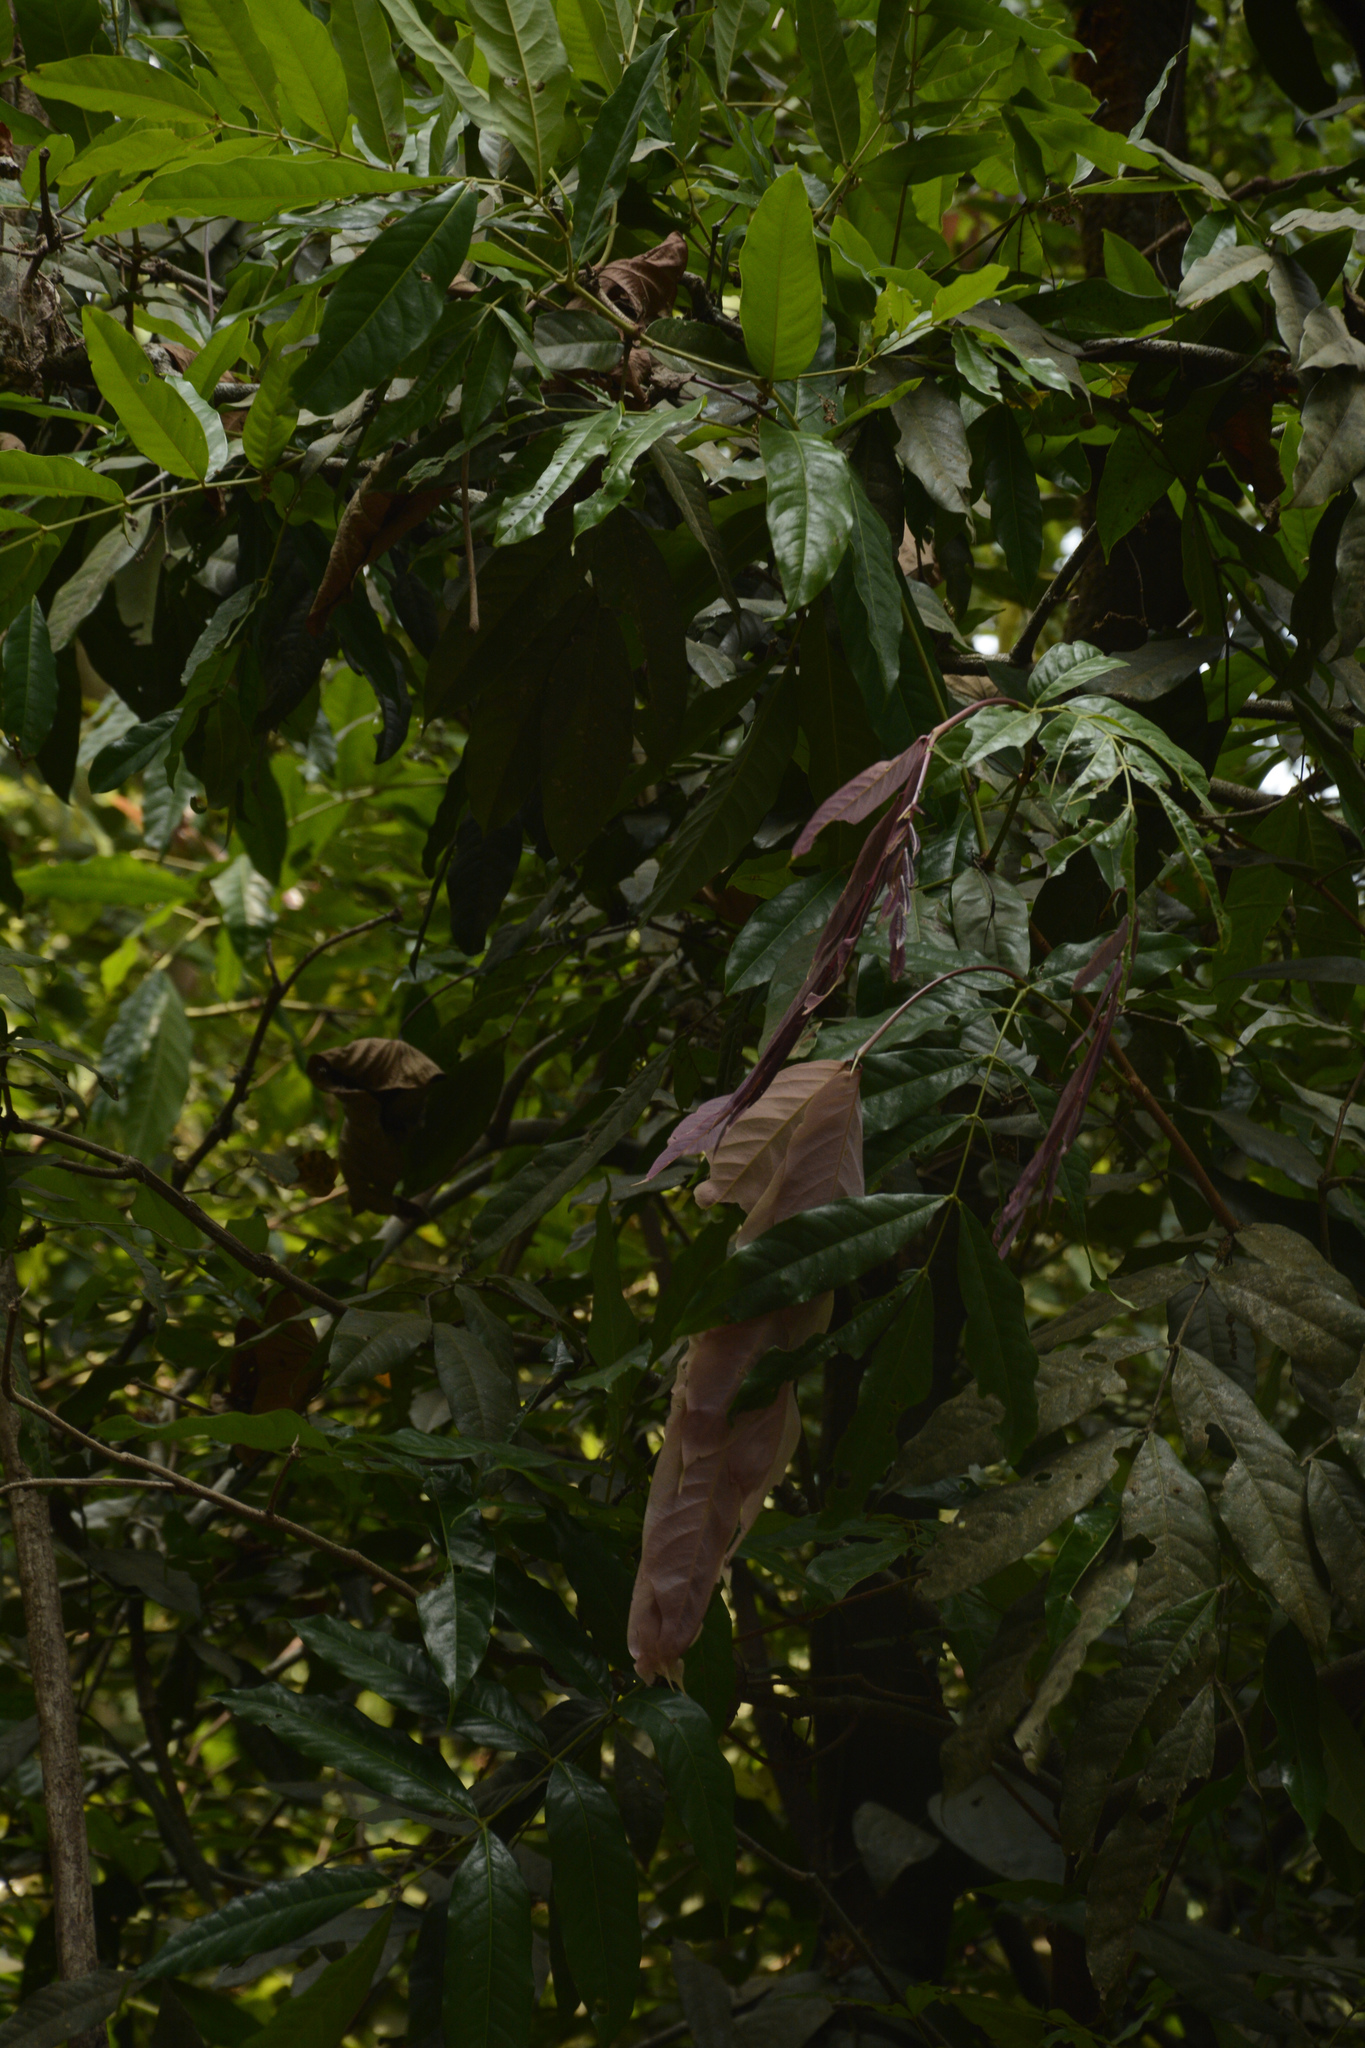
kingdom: Plantae
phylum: Tracheophyta
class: Magnoliopsida
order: Fabales
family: Fabaceae
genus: Saraca
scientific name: Saraca asoca
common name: Asoka-tree
